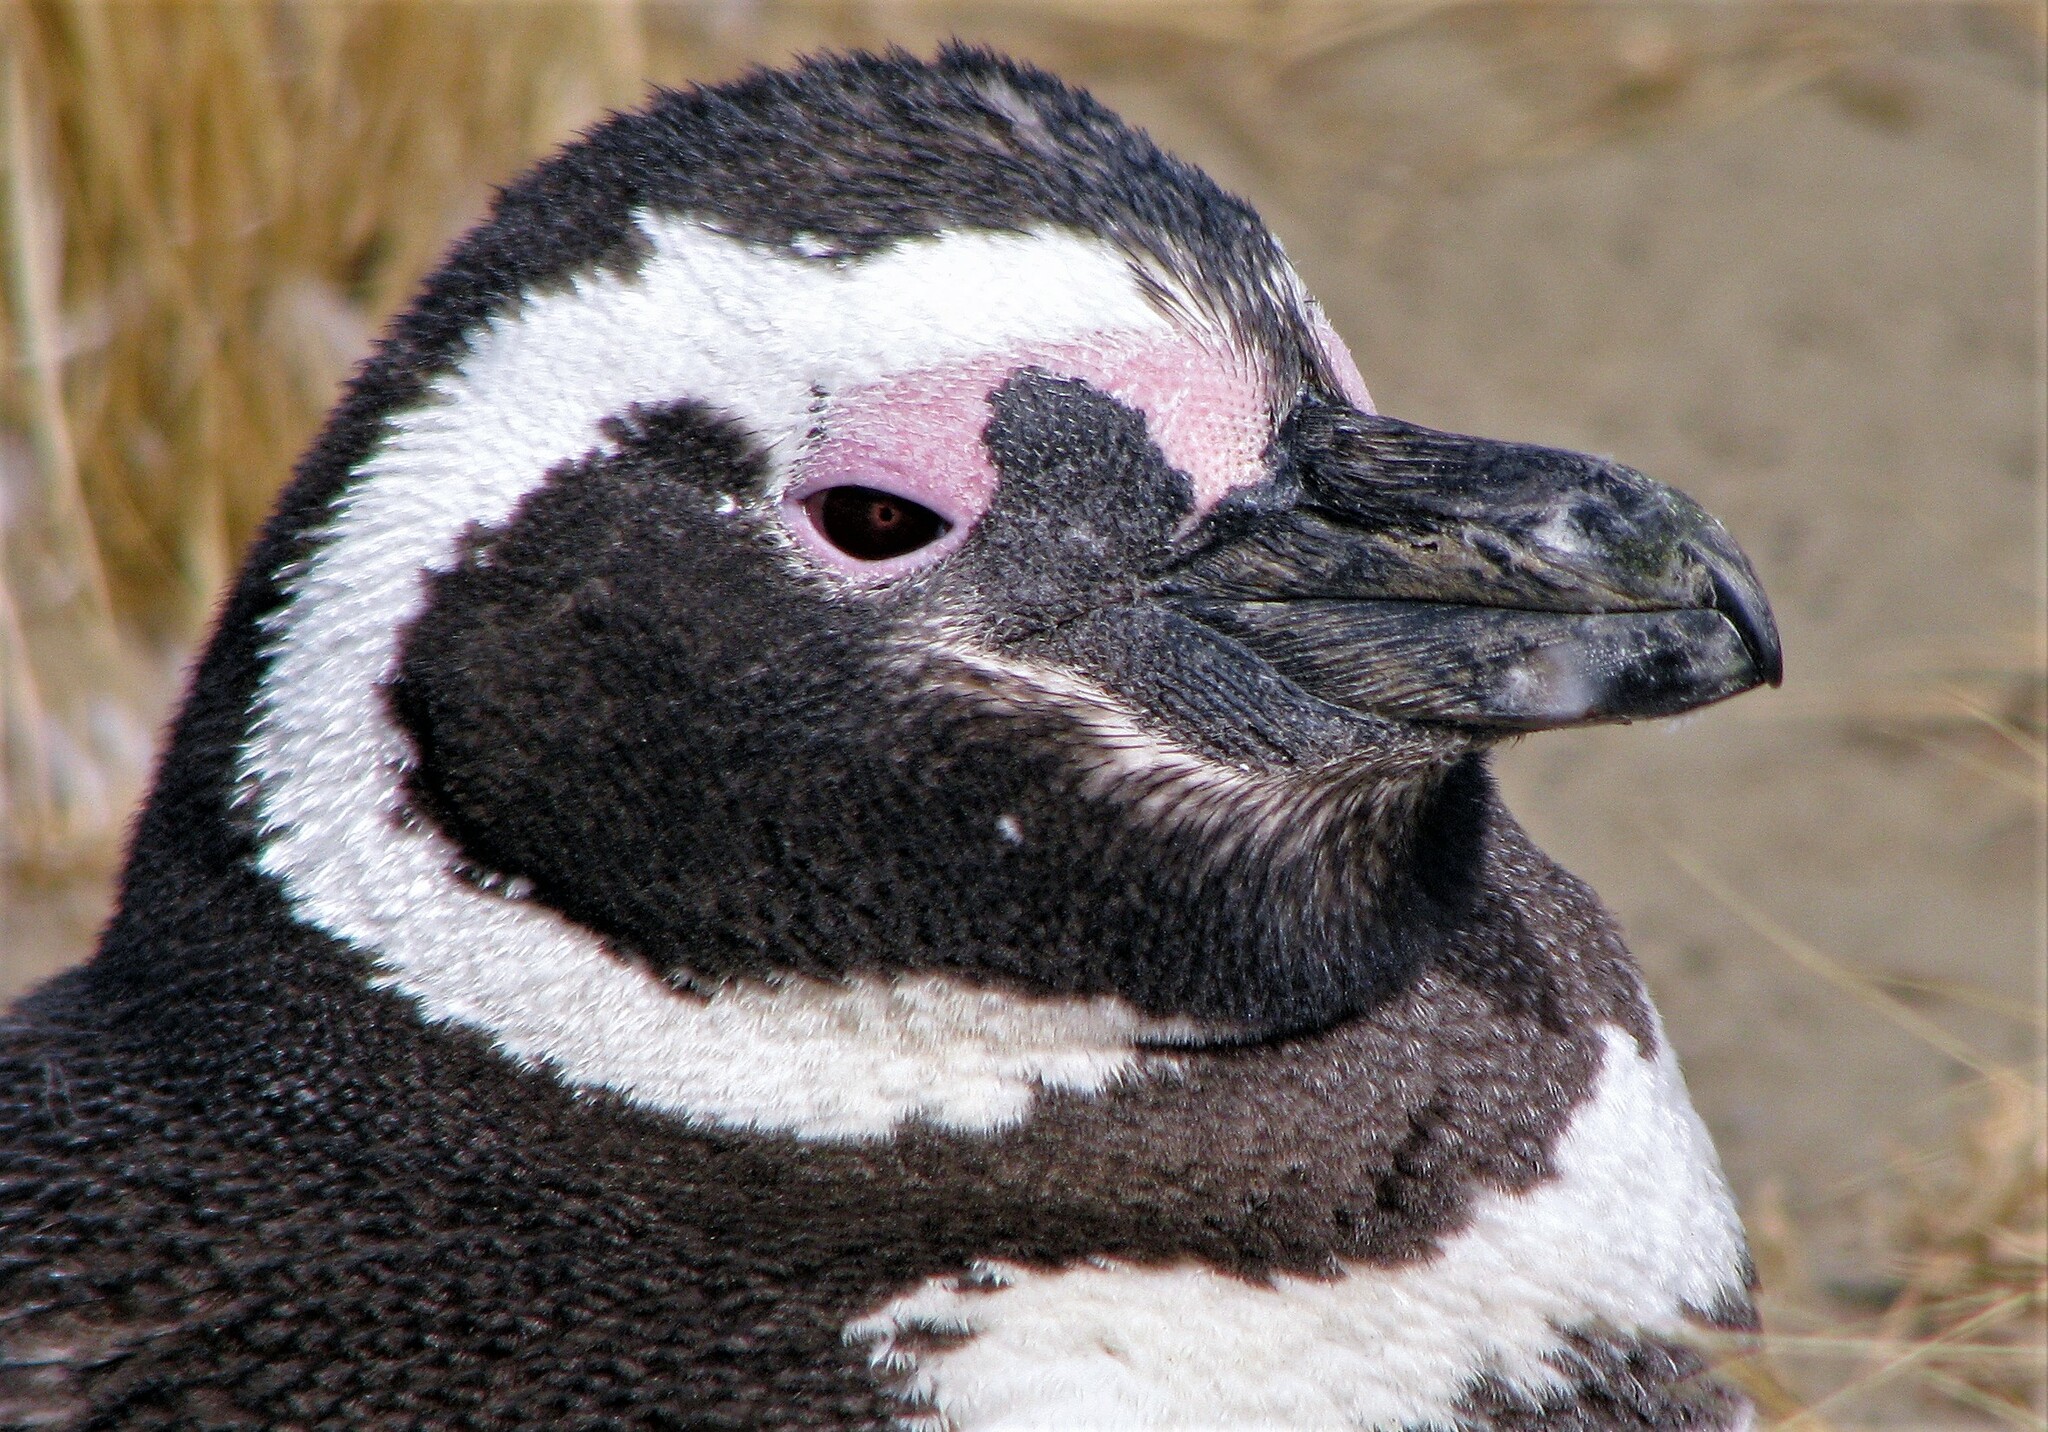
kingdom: Animalia
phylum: Chordata
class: Aves
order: Sphenisciformes
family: Spheniscidae
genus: Spheniscus
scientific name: Spheniscus magellanicus
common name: Magellanic penguin
